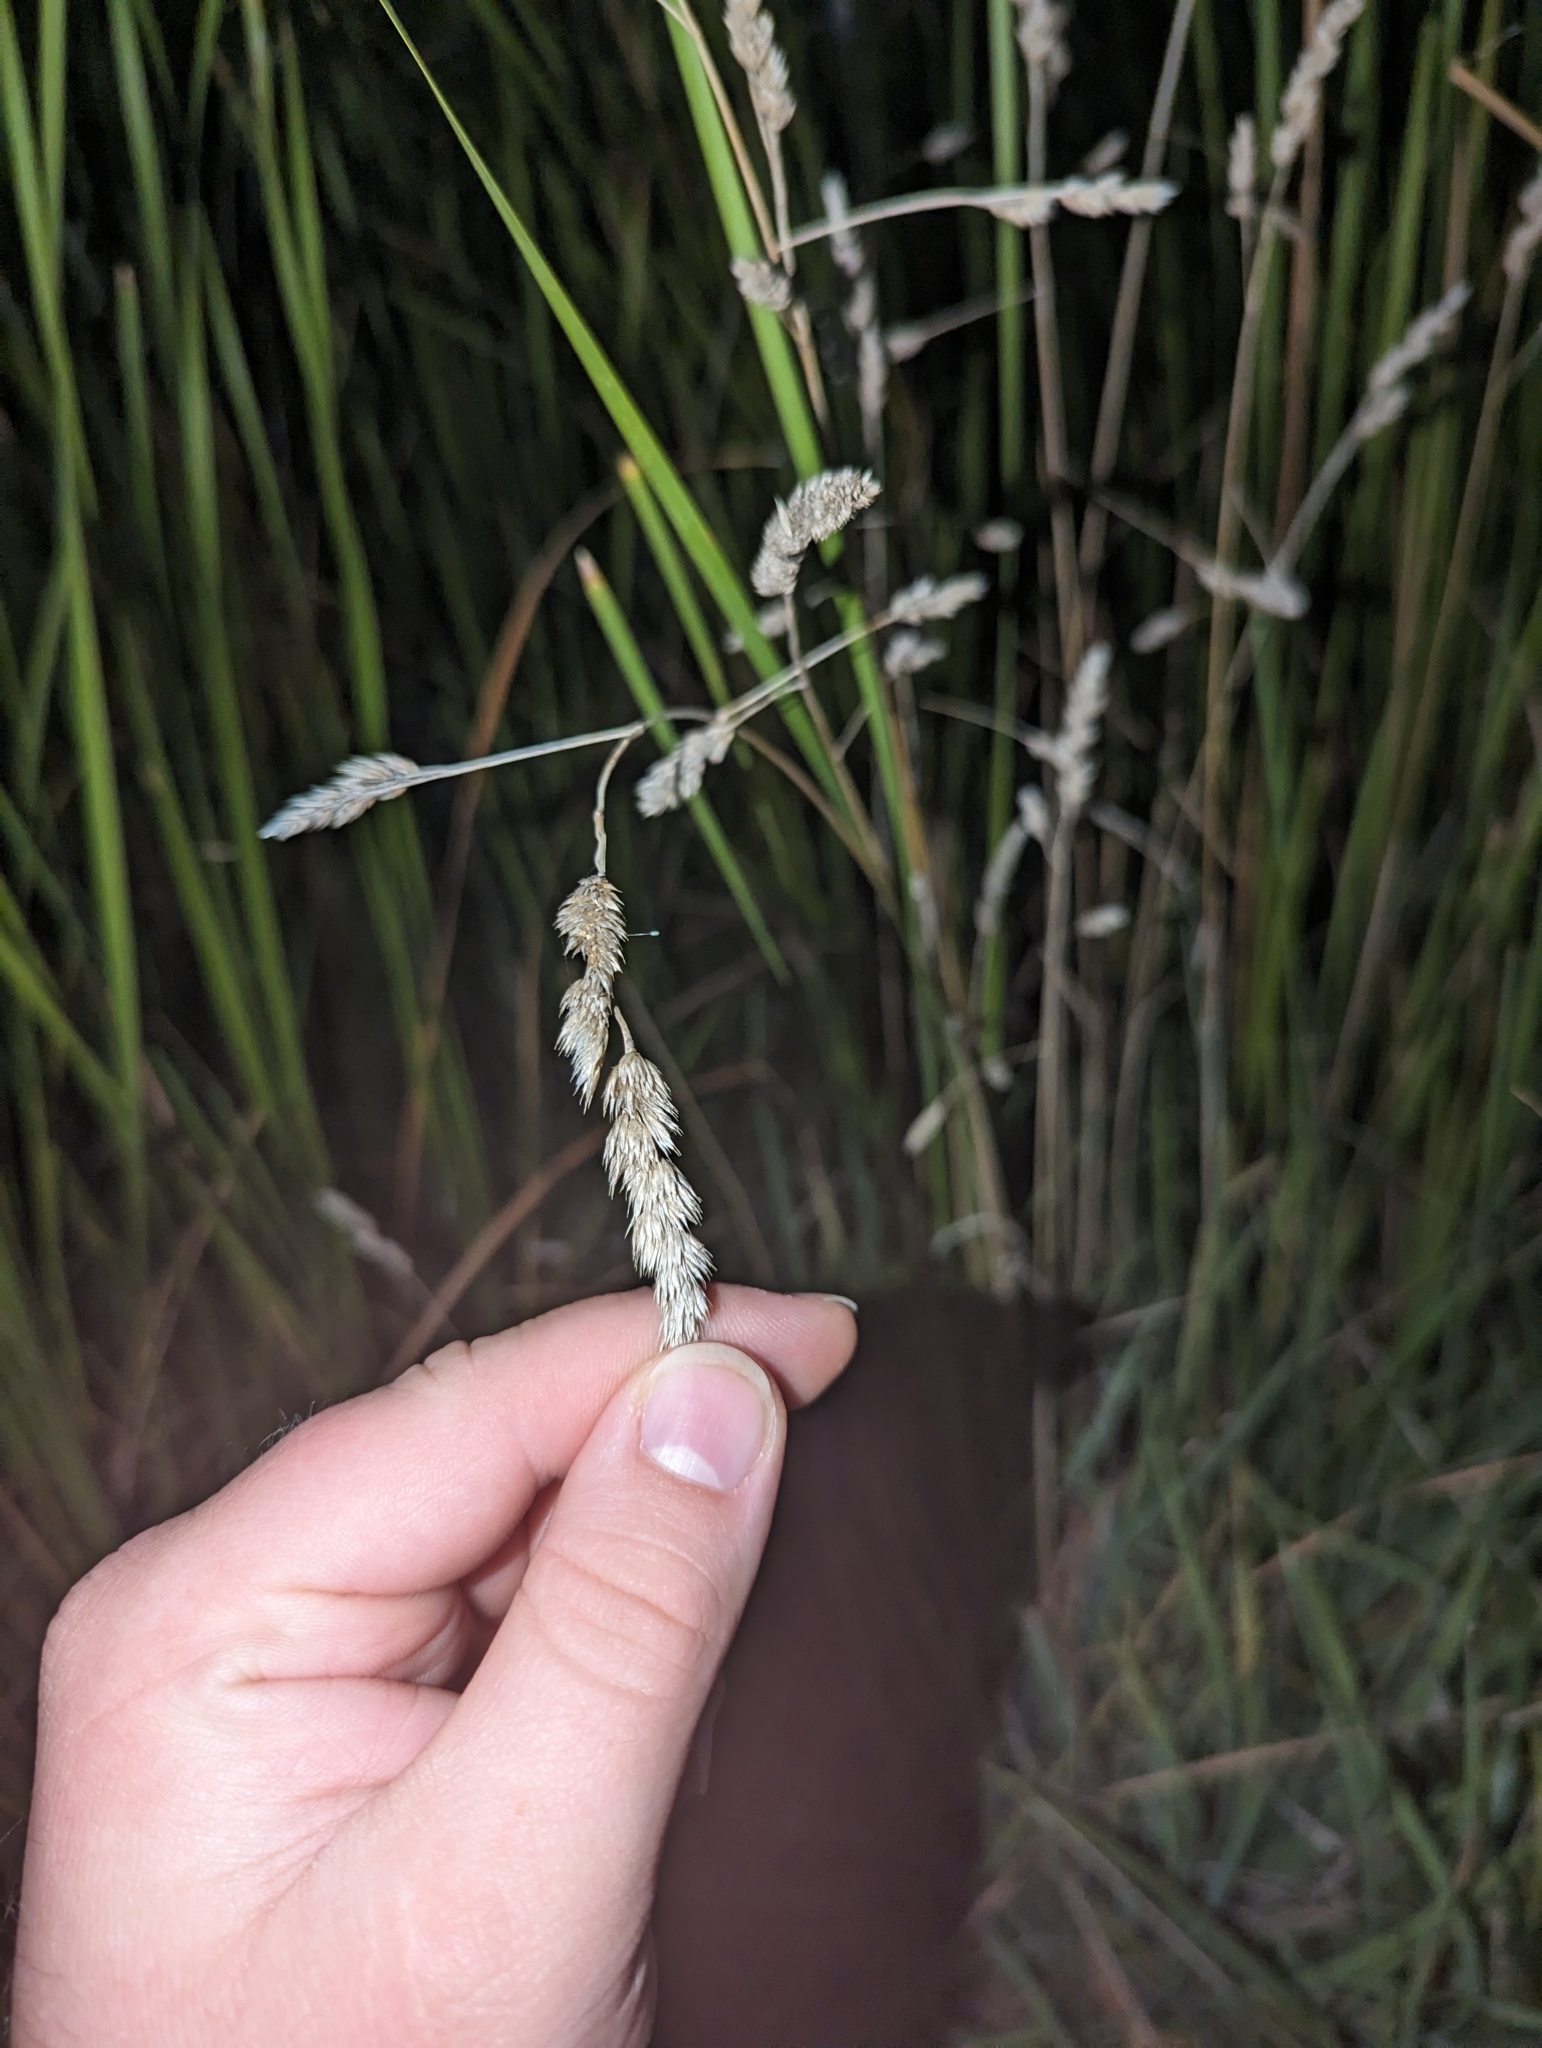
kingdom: Plantae
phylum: Tracheophyta
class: Liliopsida
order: Poales
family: Poaceae
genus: Dactylis
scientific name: Dactylis glomerata
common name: Orchardgrass
